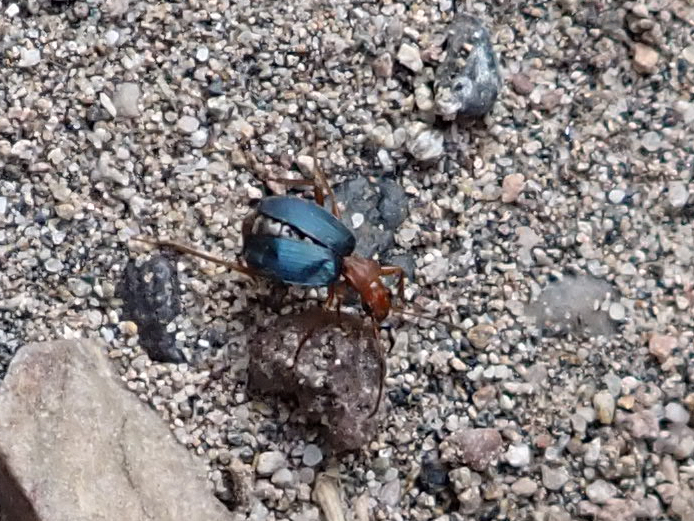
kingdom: Animalia
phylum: Arthropoda
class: Insecta
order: Coleoptera
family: Carabidae
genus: Brachinus
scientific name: Brachinus
